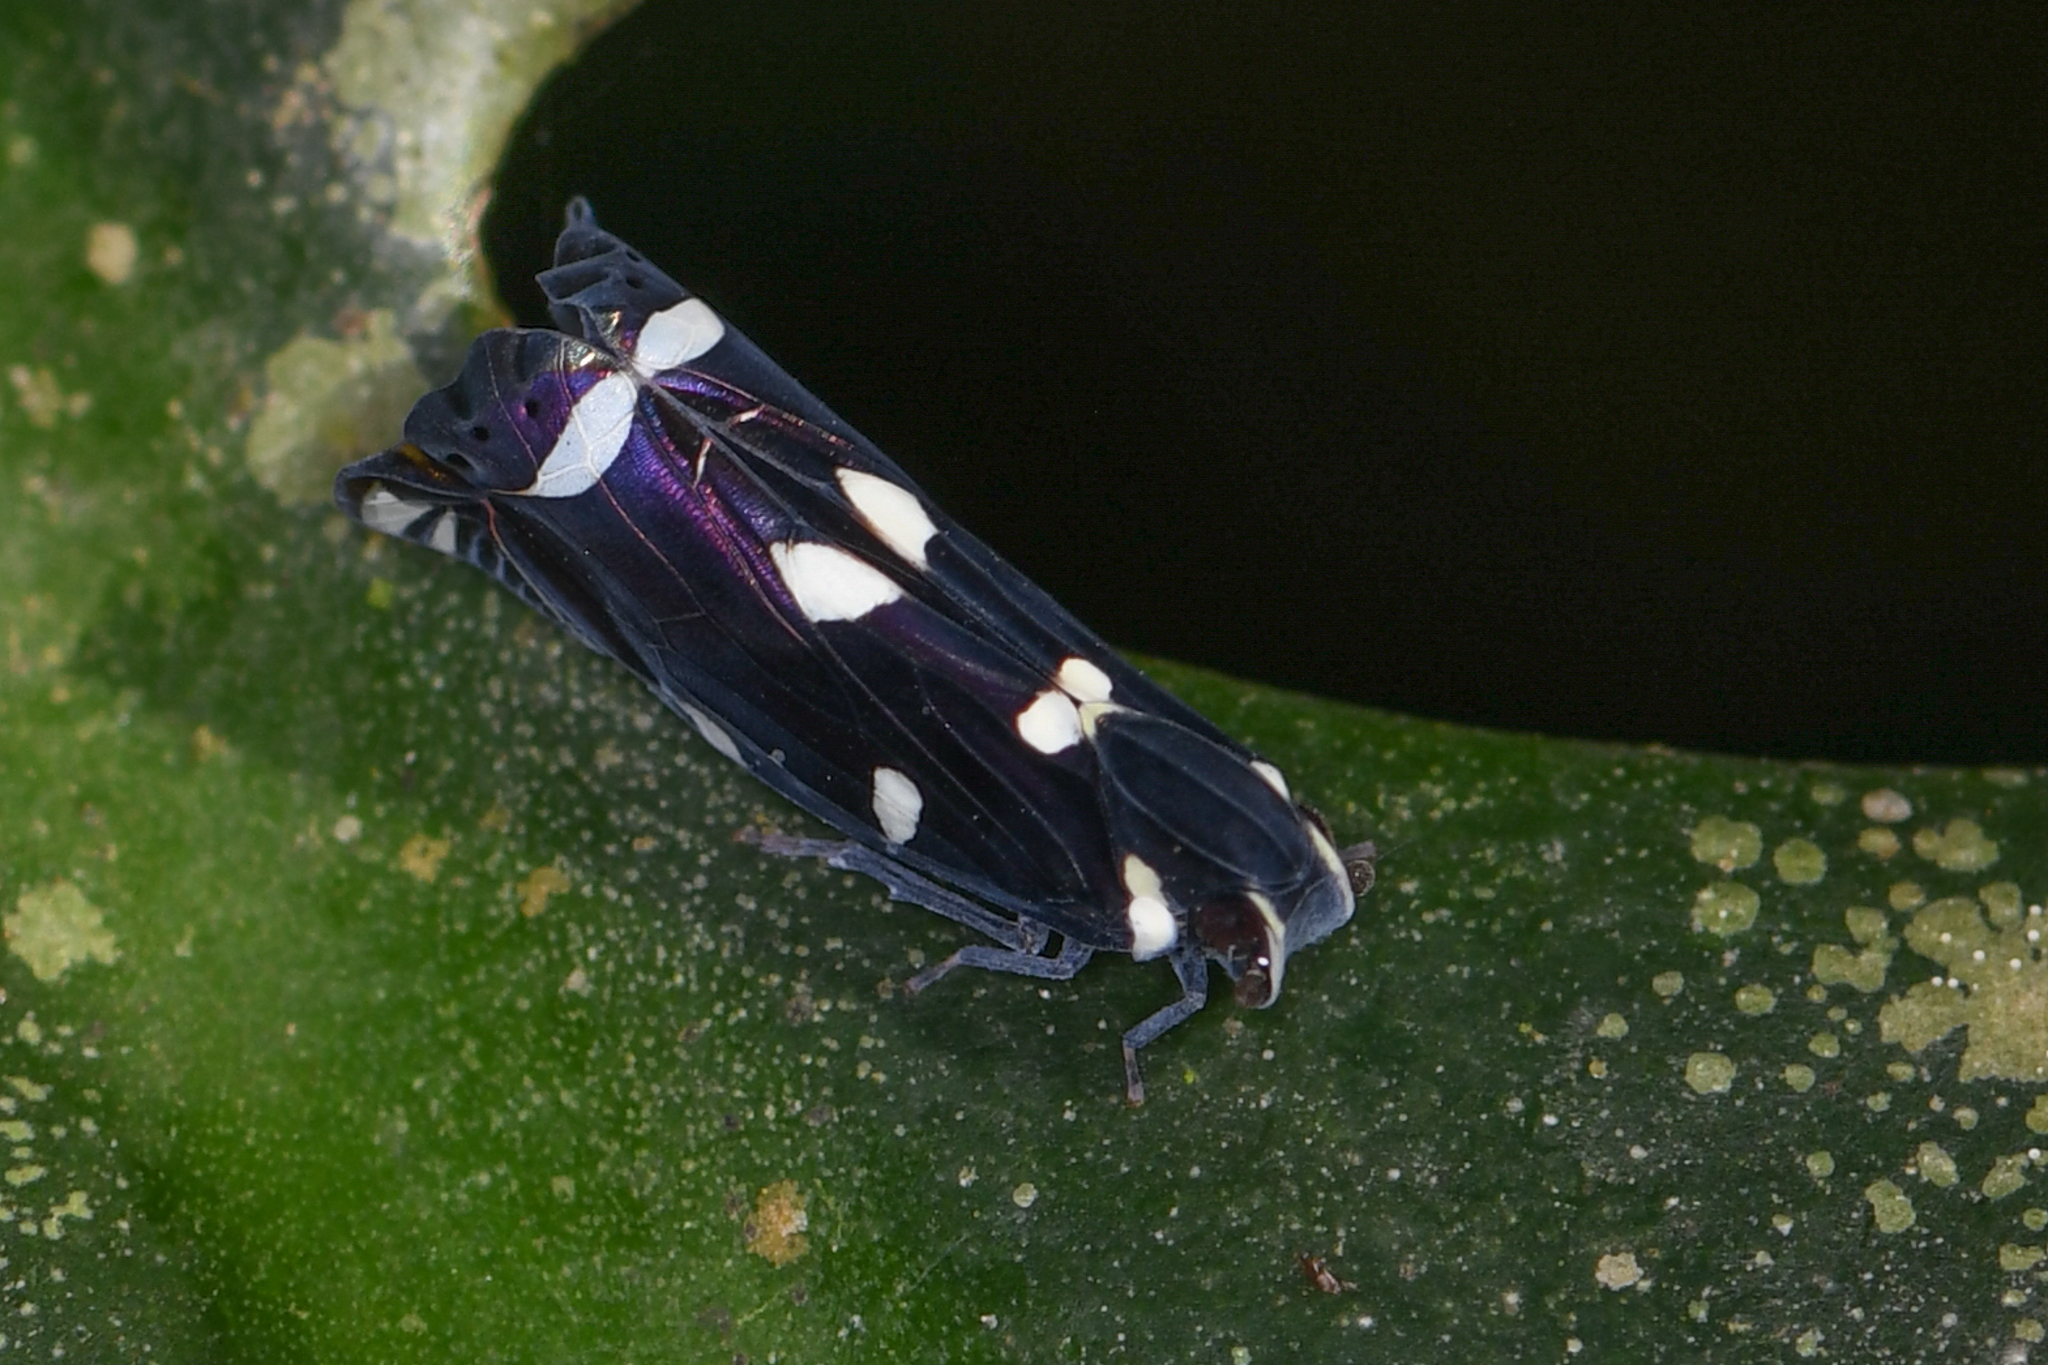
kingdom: Animalia
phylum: Arthropoda
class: Insecta
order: Hemiptera
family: Achilidae
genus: Apateson
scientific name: Apateson albomaculatum
